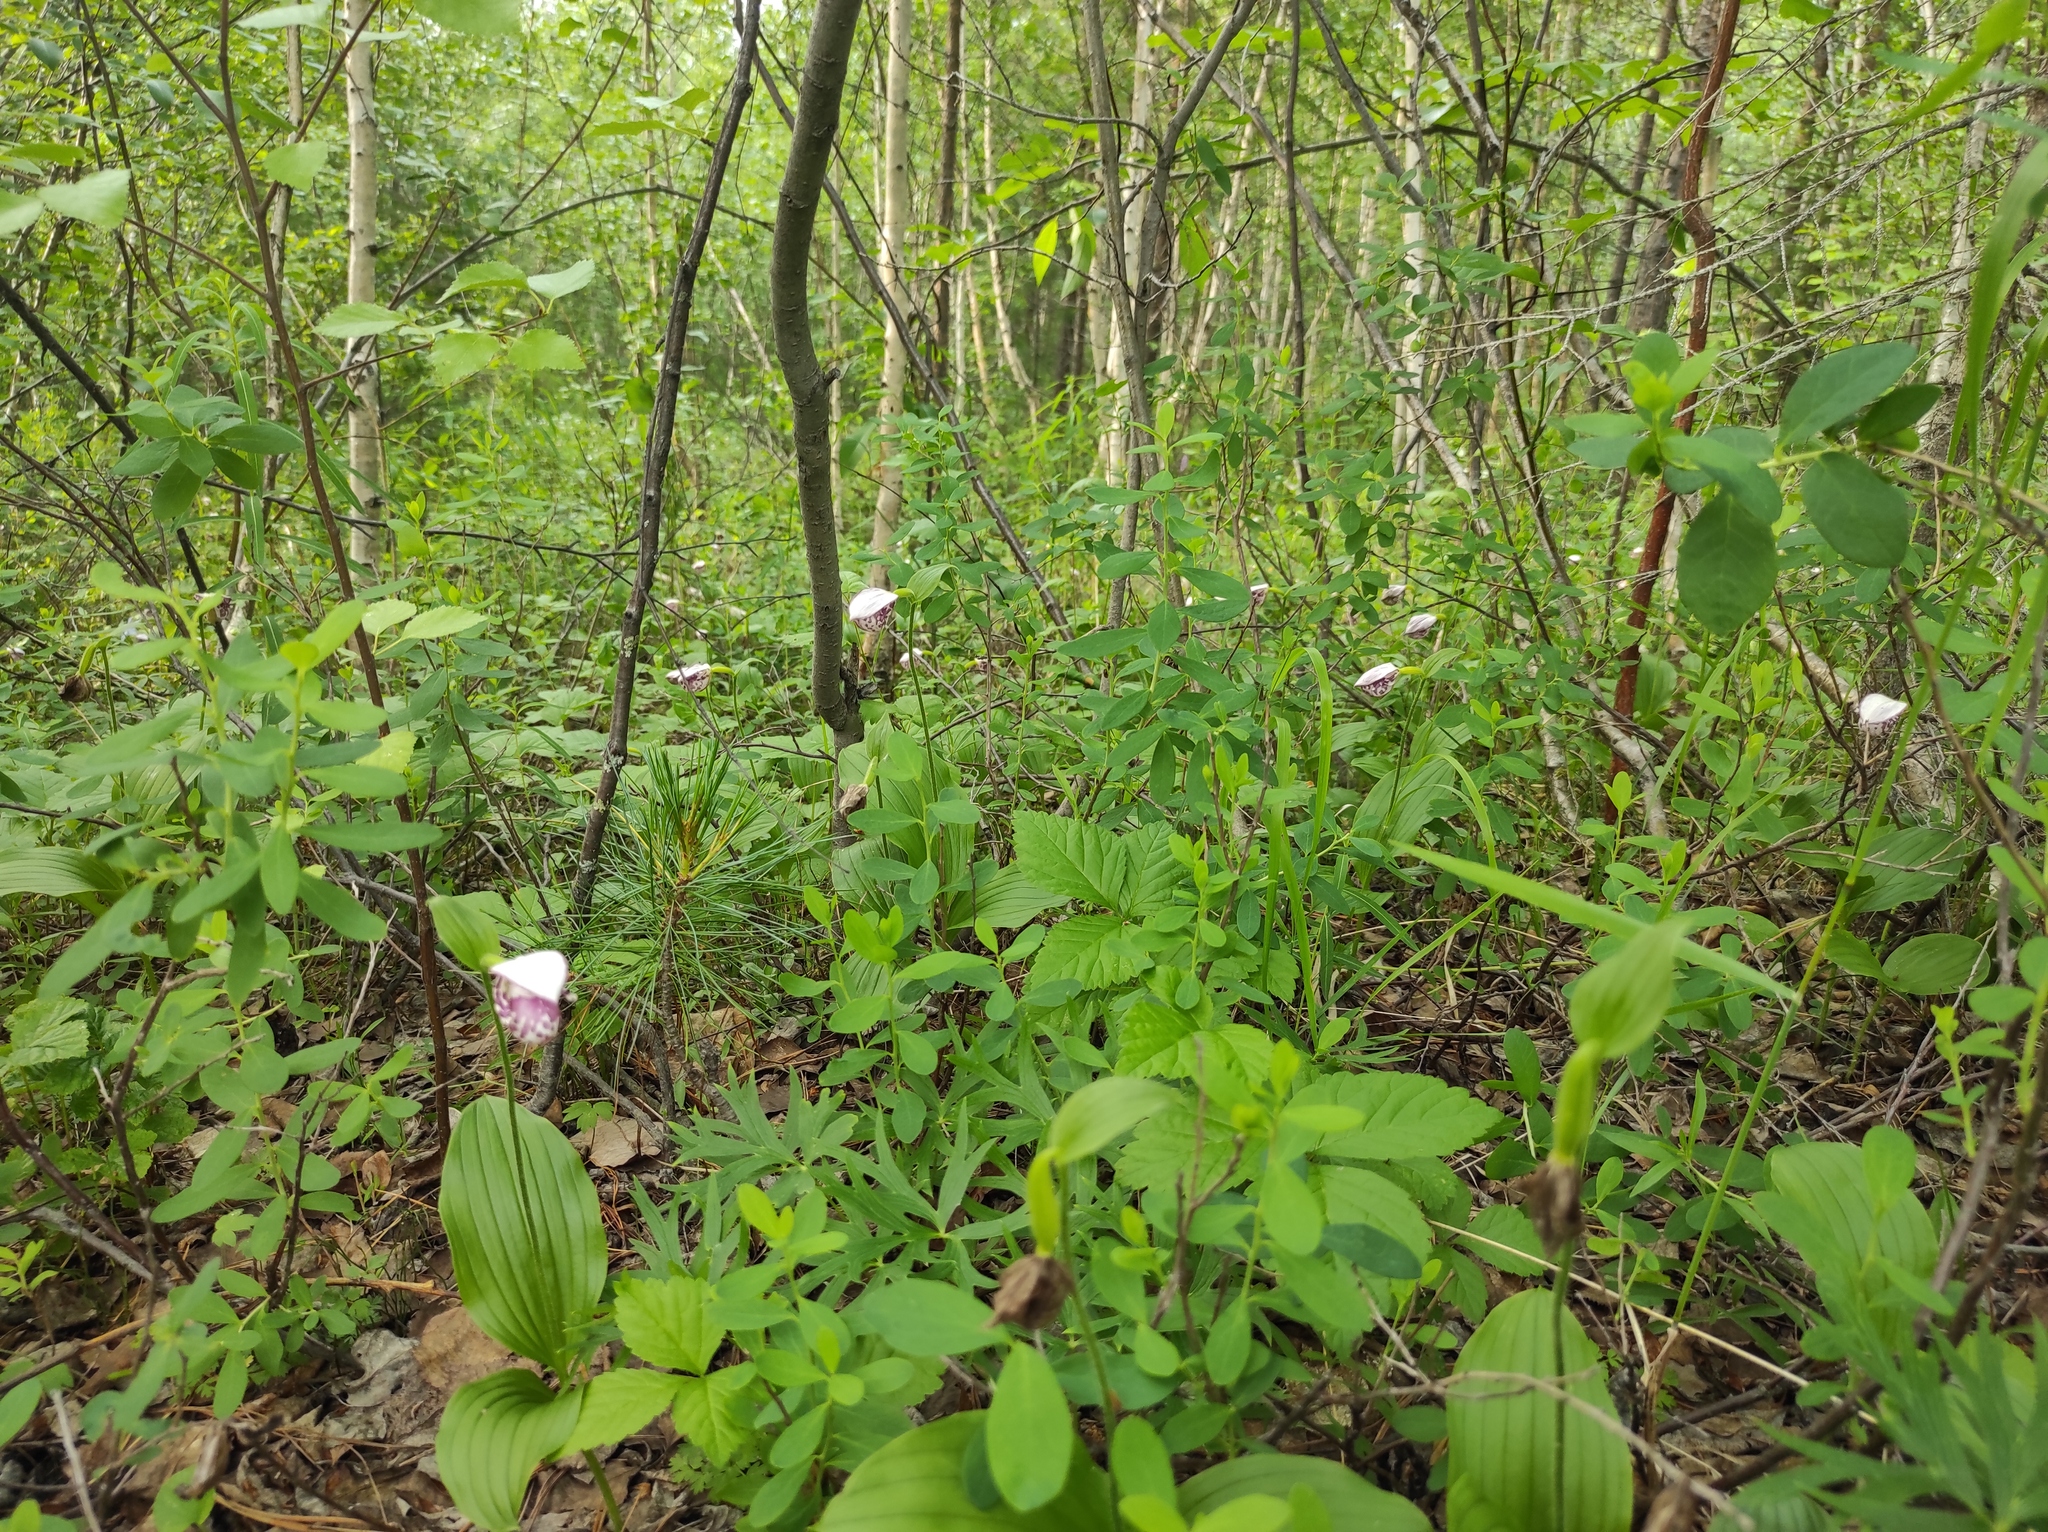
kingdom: Plantae
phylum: Tracheophyta
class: Liliopsida
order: Asparagales
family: Orchidaceae
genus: Cypripedium
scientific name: Cypripedium guttatum
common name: Pink lady slipper
